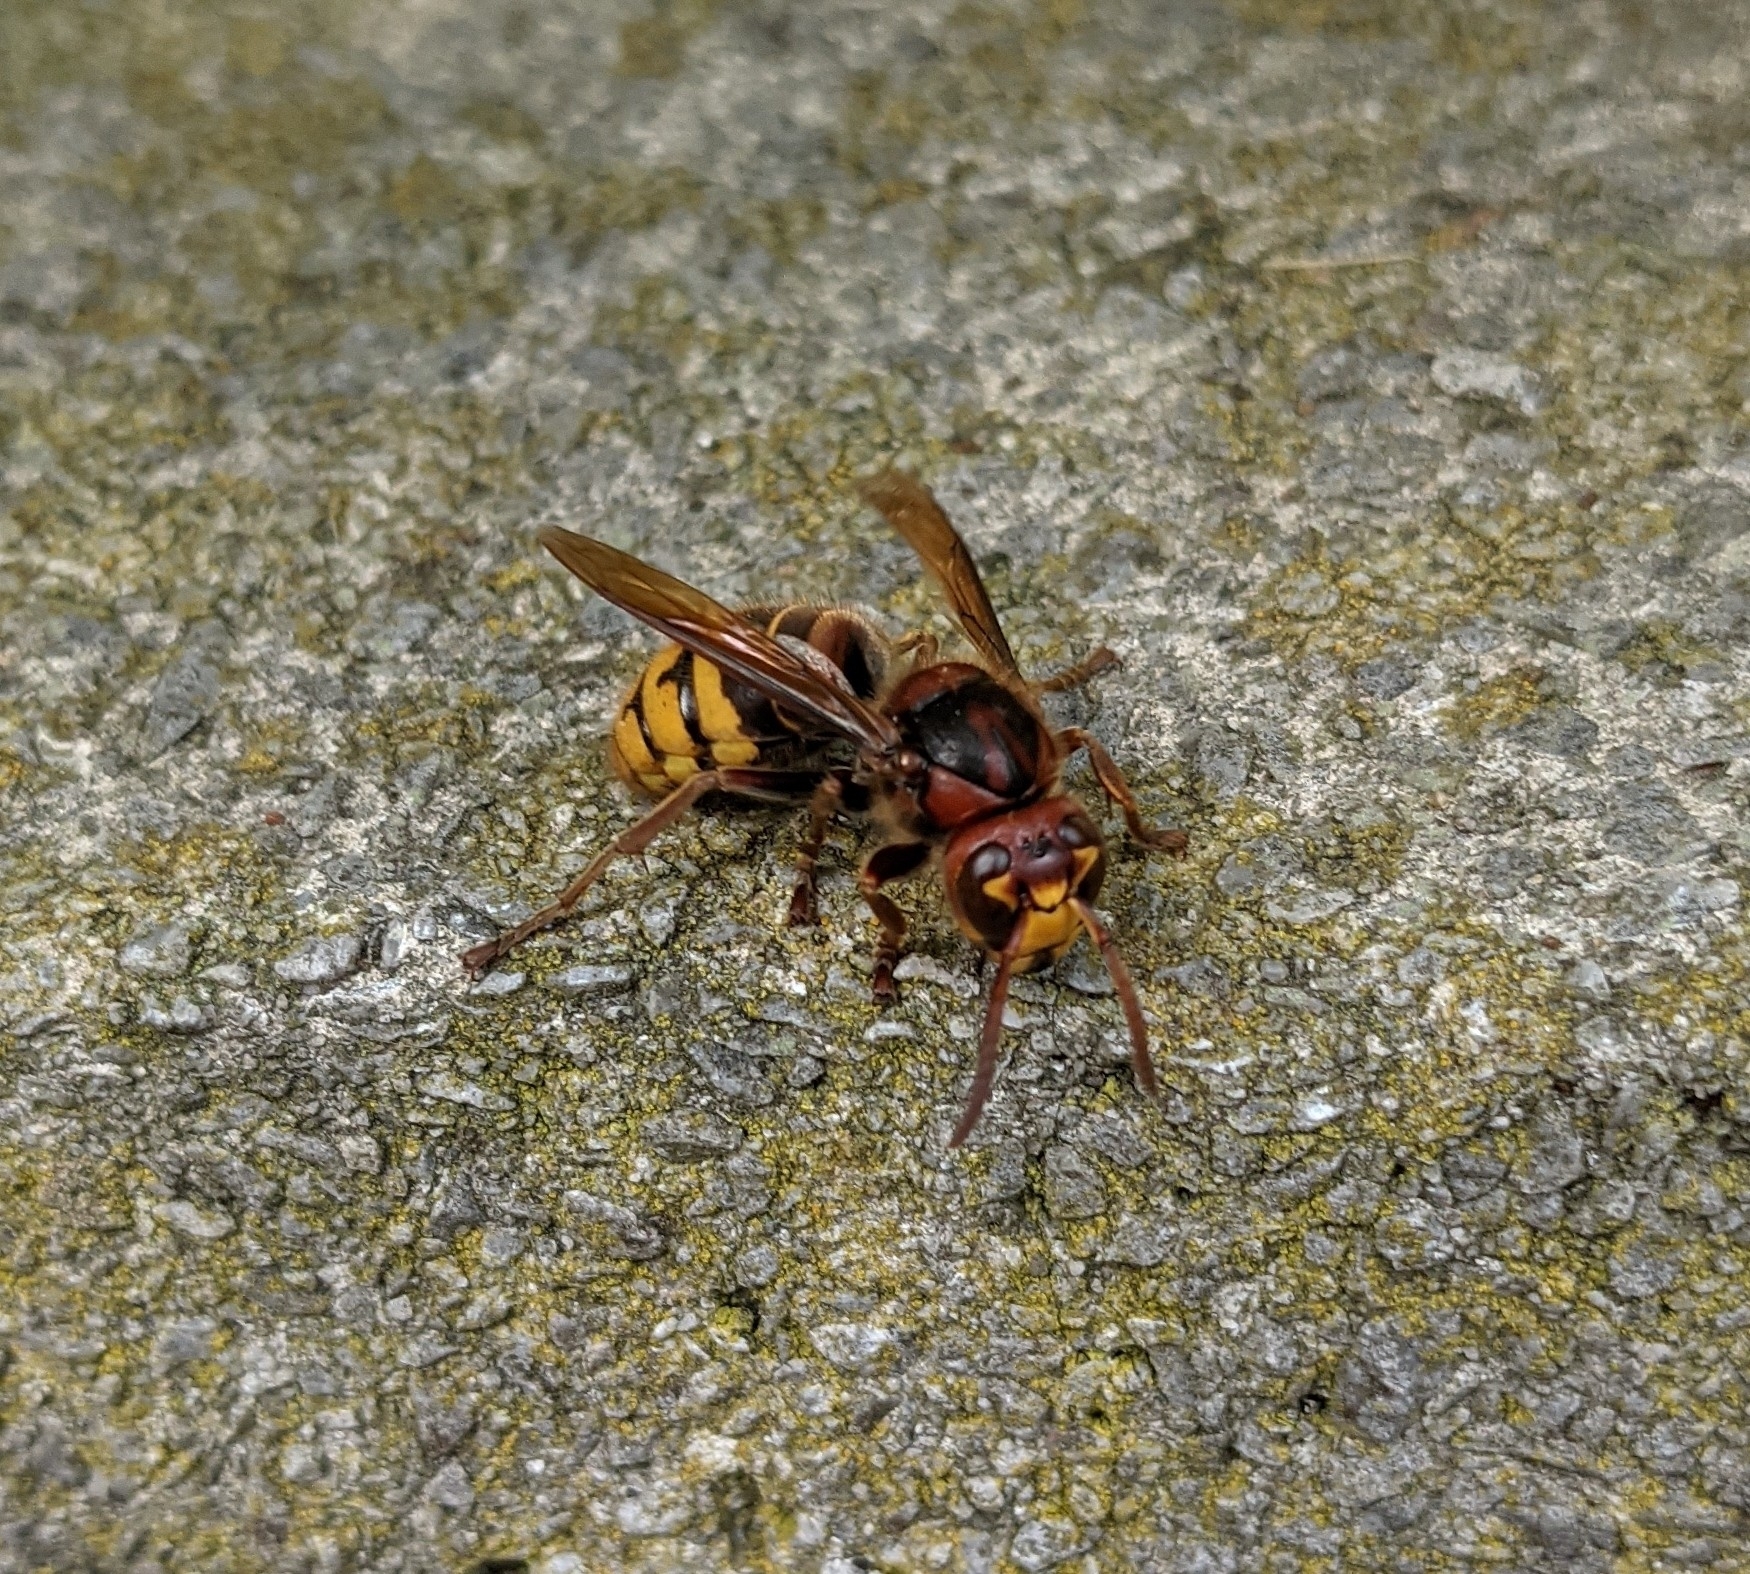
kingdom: Animalia
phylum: Arthropoda
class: Insecta
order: Hymenoptera
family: Vespidae
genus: Vespa
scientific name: Vespa crabro
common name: Hornet
